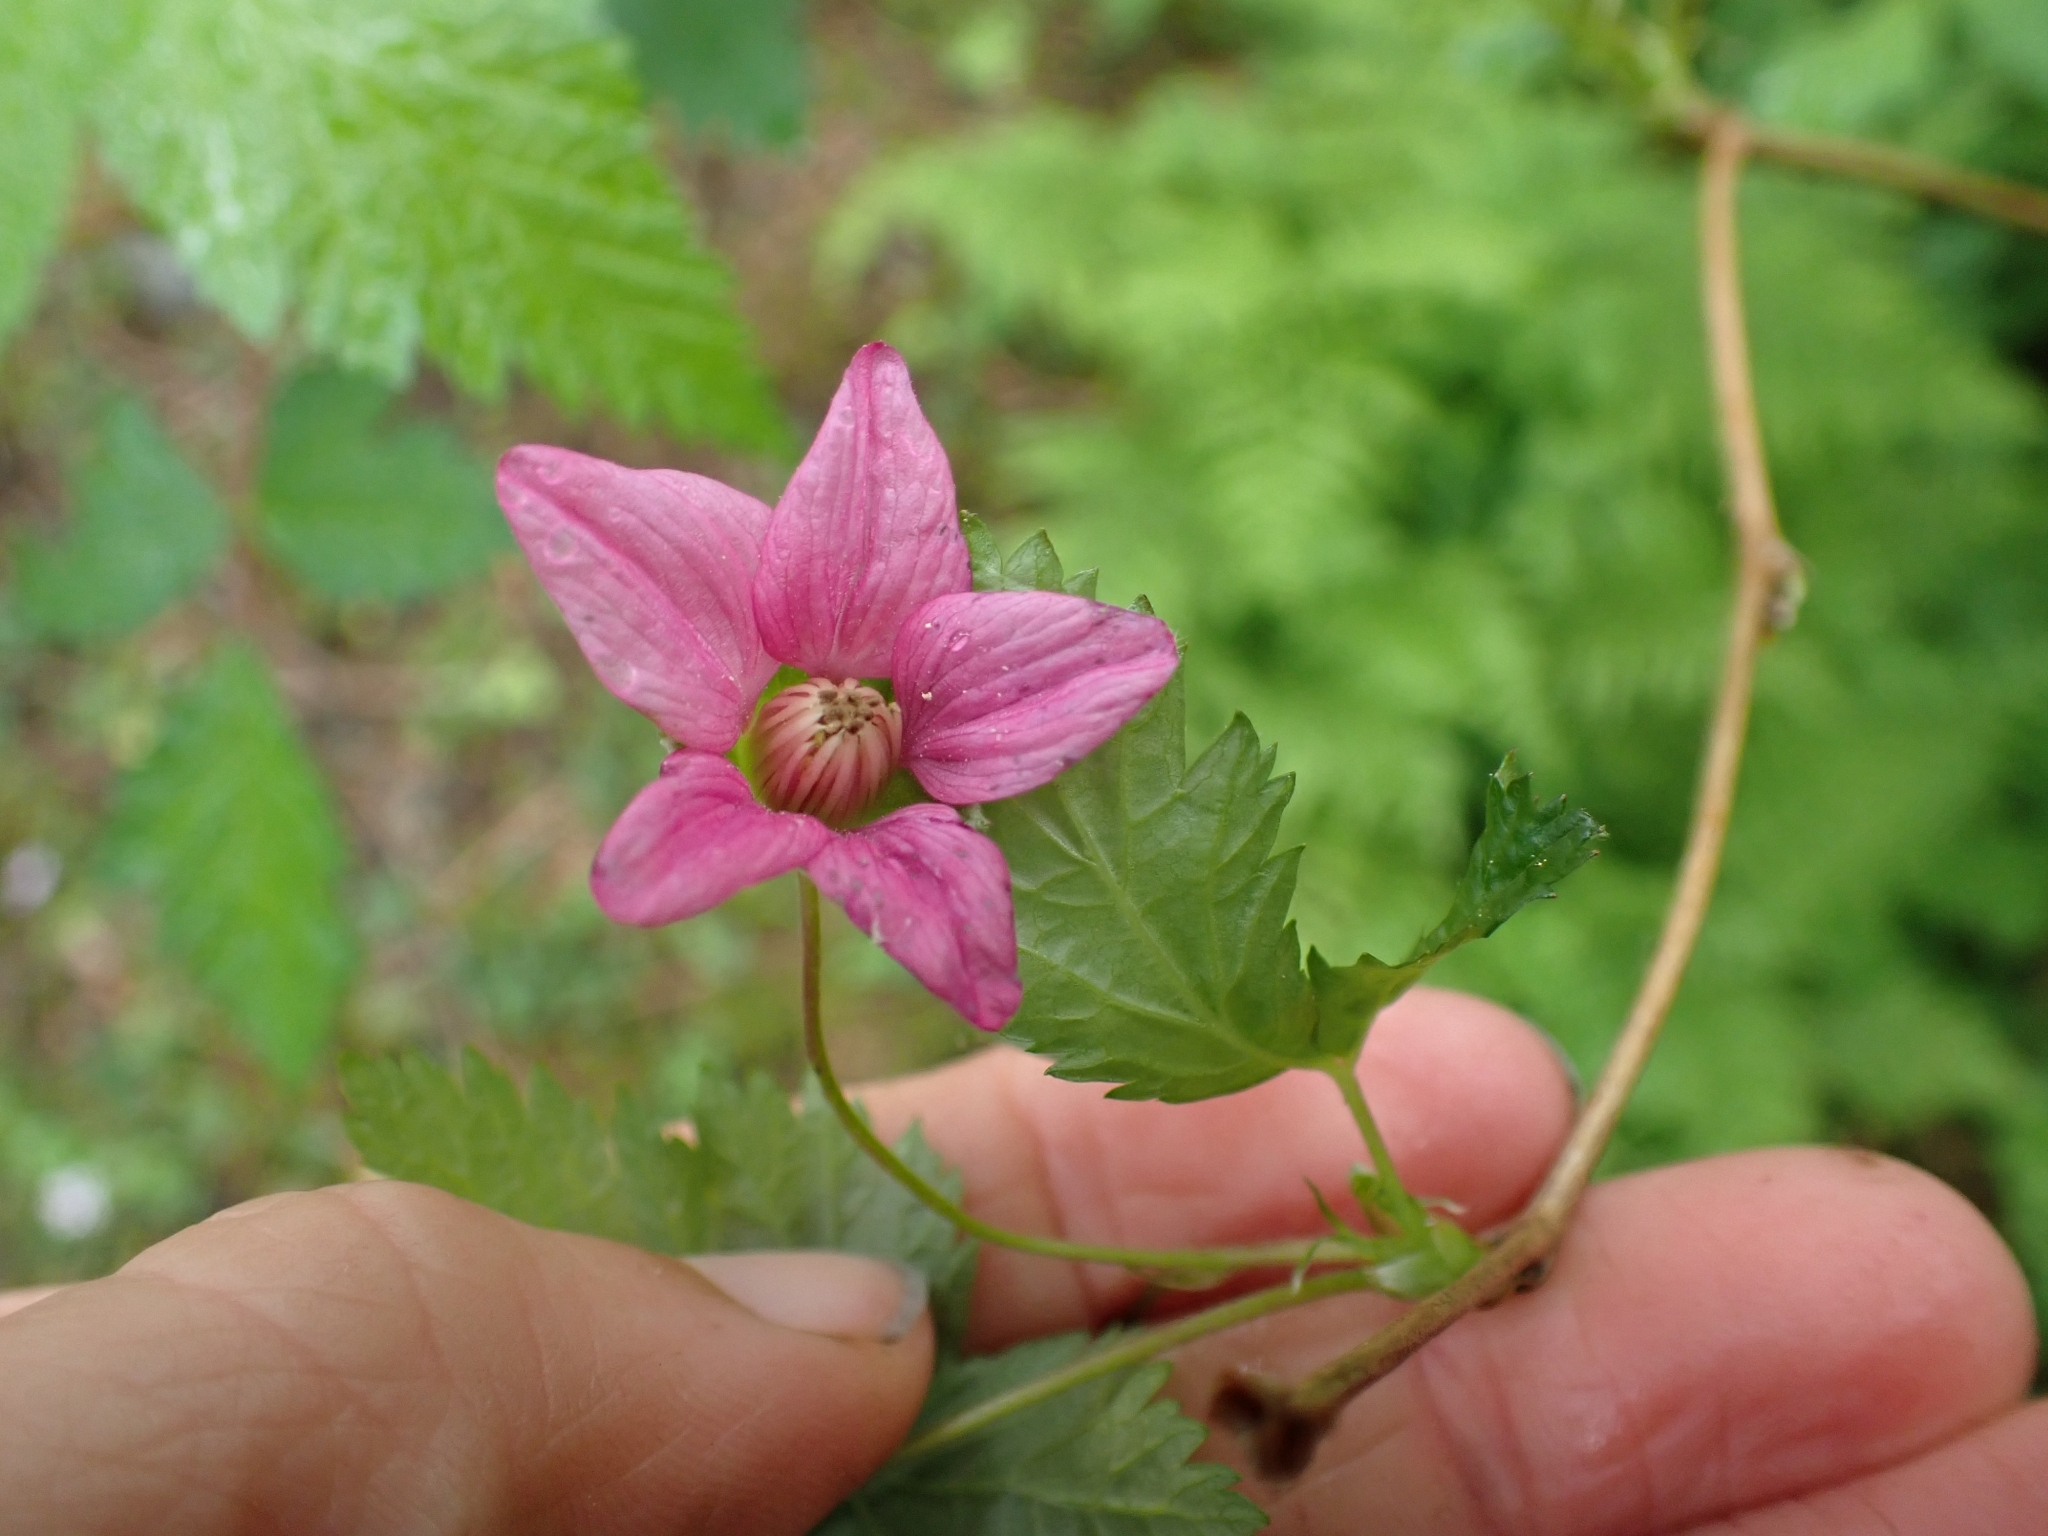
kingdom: Plantae
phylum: Tracheophyta
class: Magnoliopsida
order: Rosales
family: Rosaceae
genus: Rubus
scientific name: Rubus spectabilis
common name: Salmonberry
